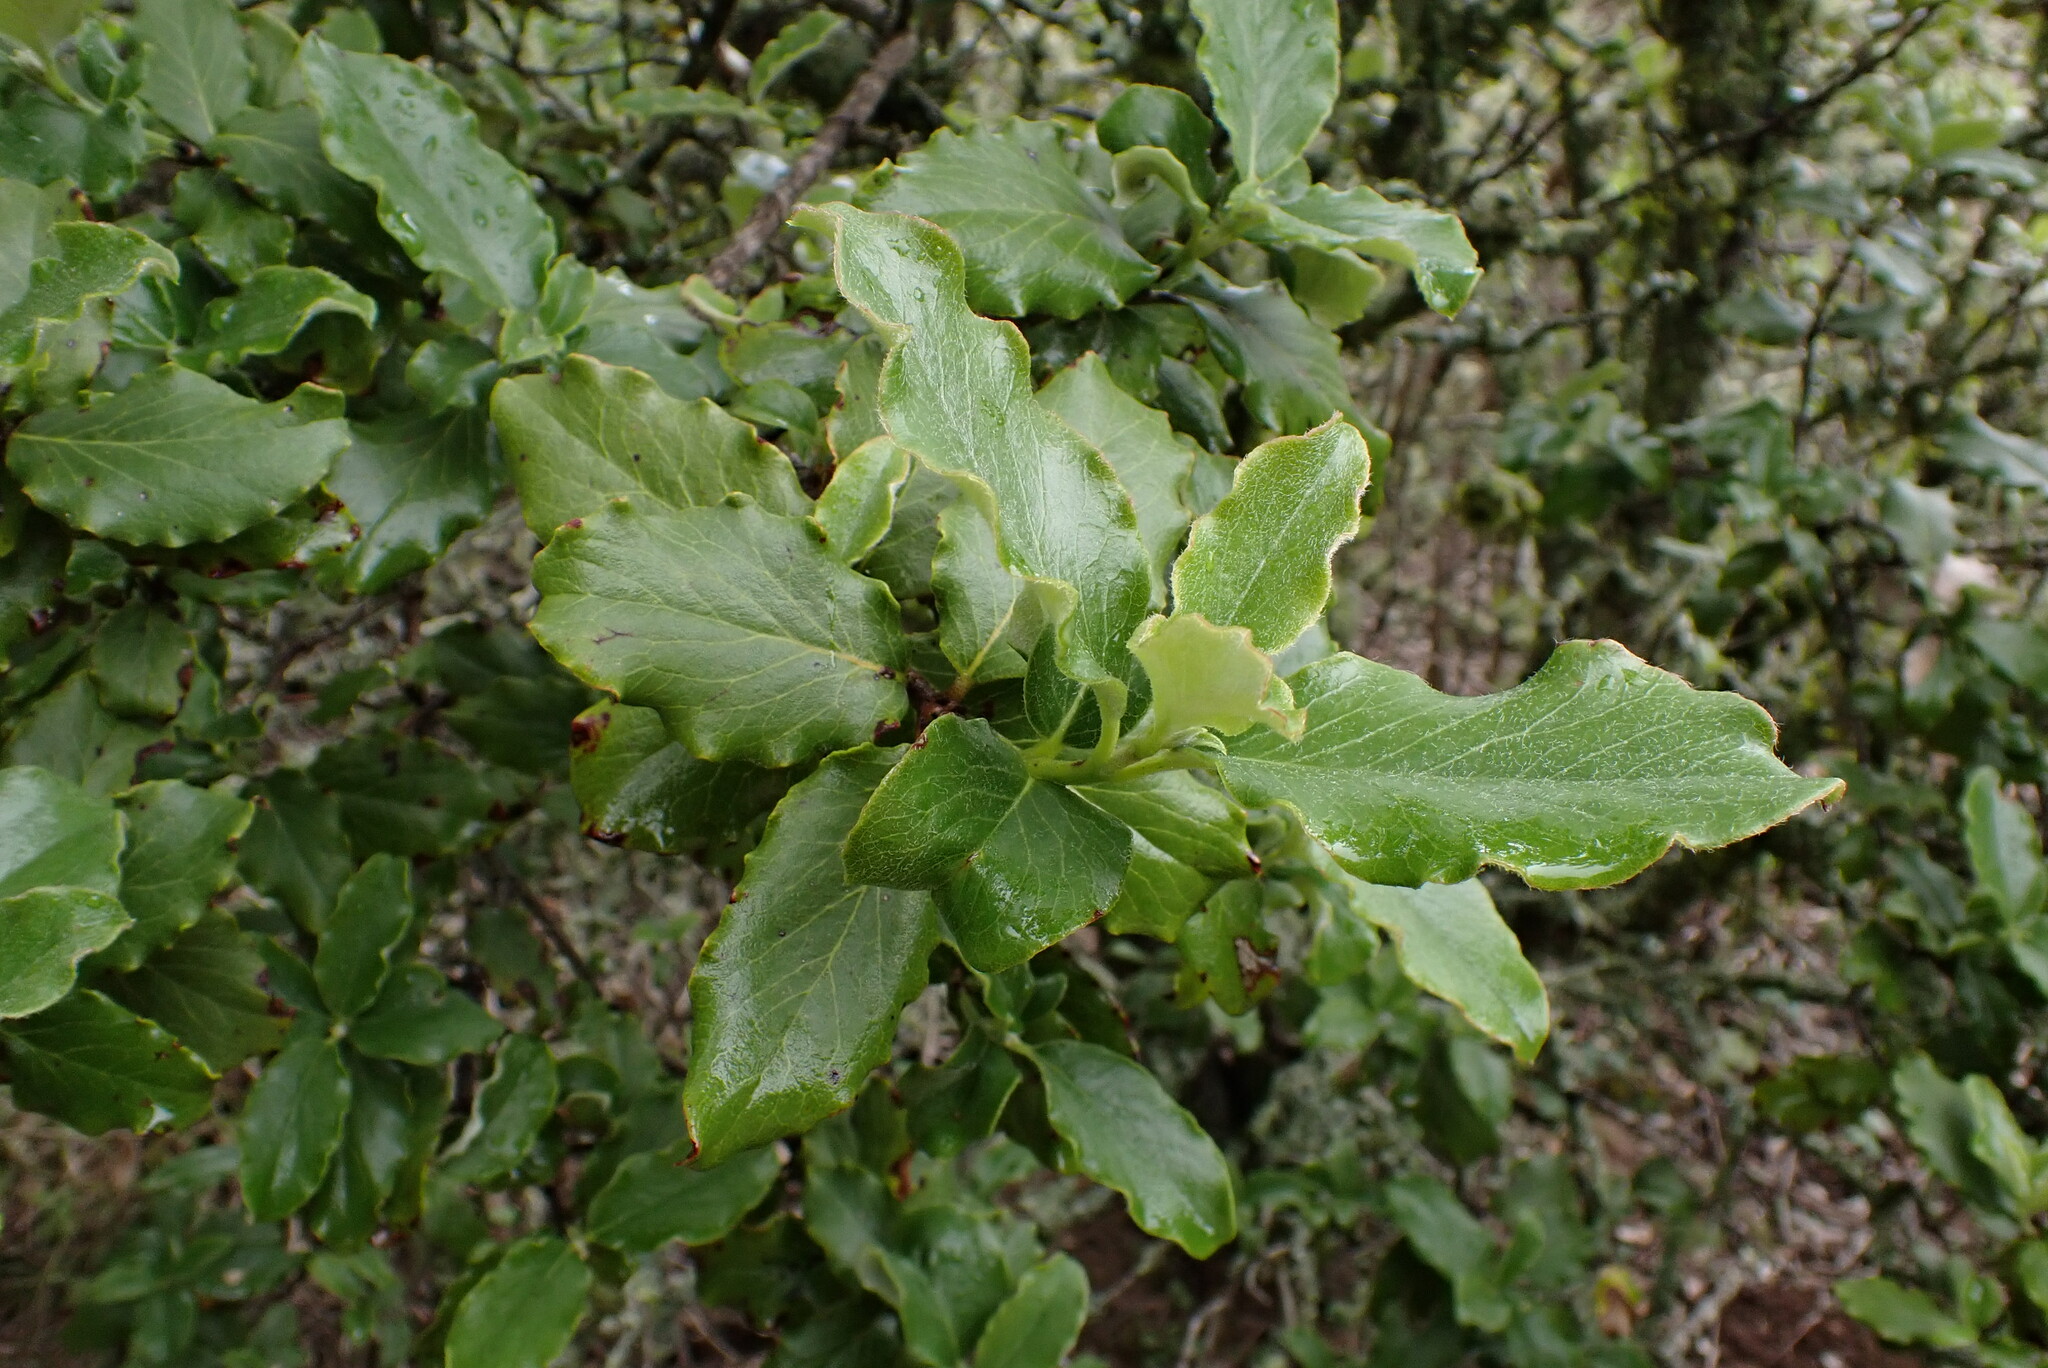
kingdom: Plantae
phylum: Tracheophyta
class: Magnoliopsida
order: Garryales
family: Garryaceae
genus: Garrya
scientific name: Garrya elliptica
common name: Silk-tassel
